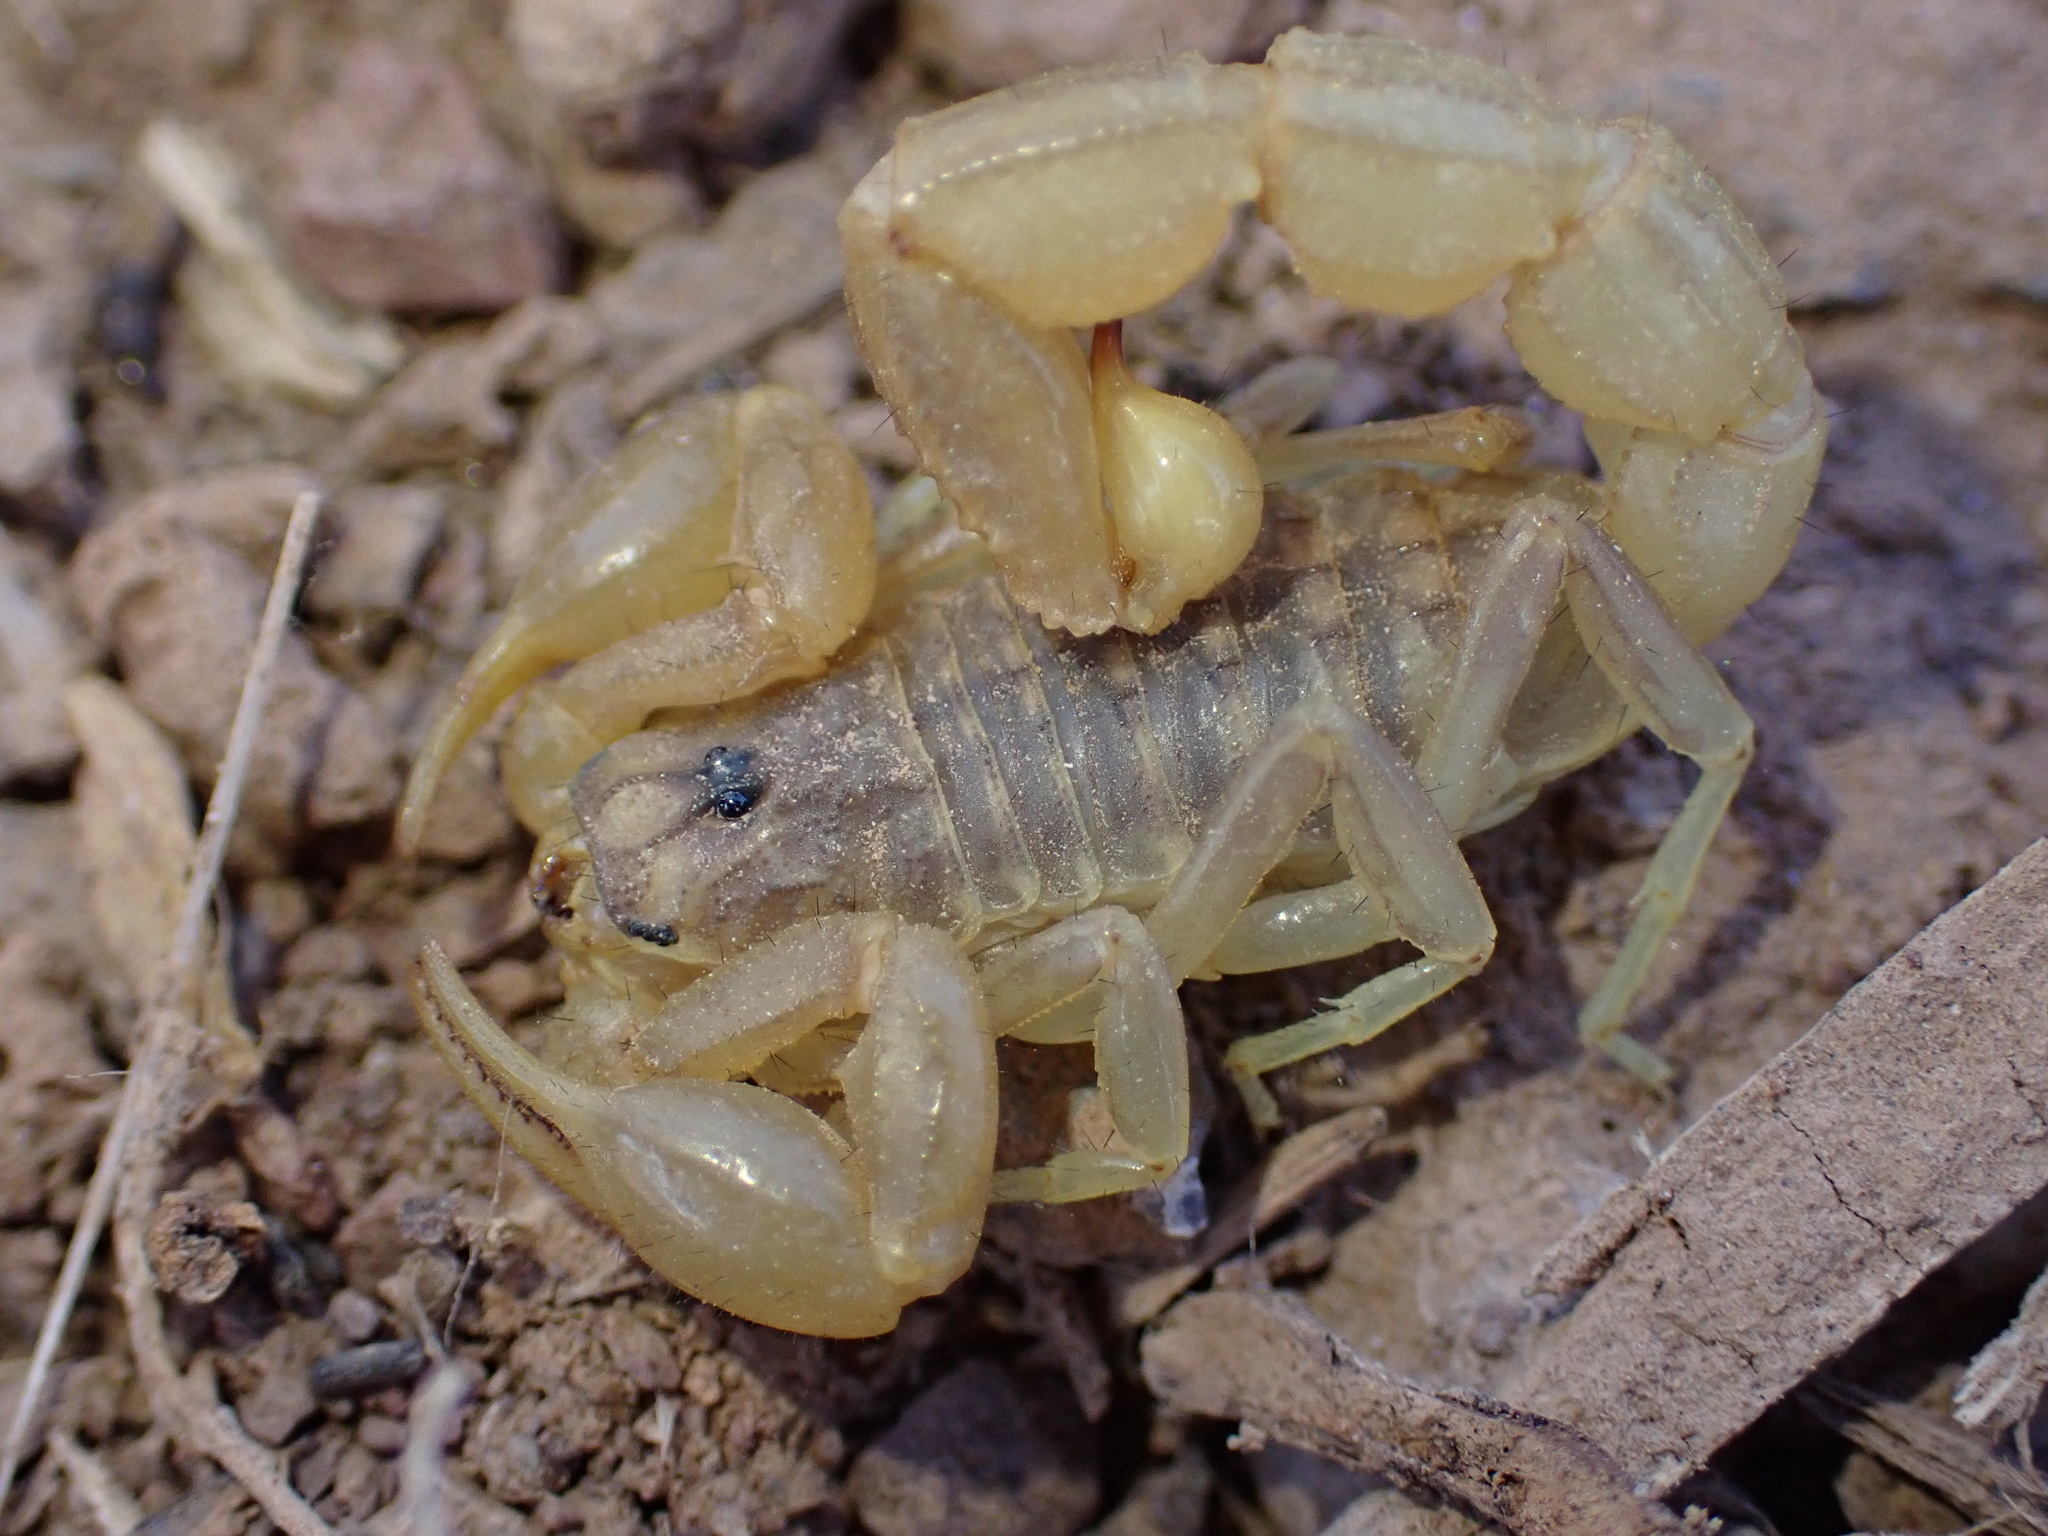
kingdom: Animalia
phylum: Arthropoda
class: Arachnida
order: Scorpiones
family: Buthidae
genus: Mesobuthus
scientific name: Mesobuthus afghanus
